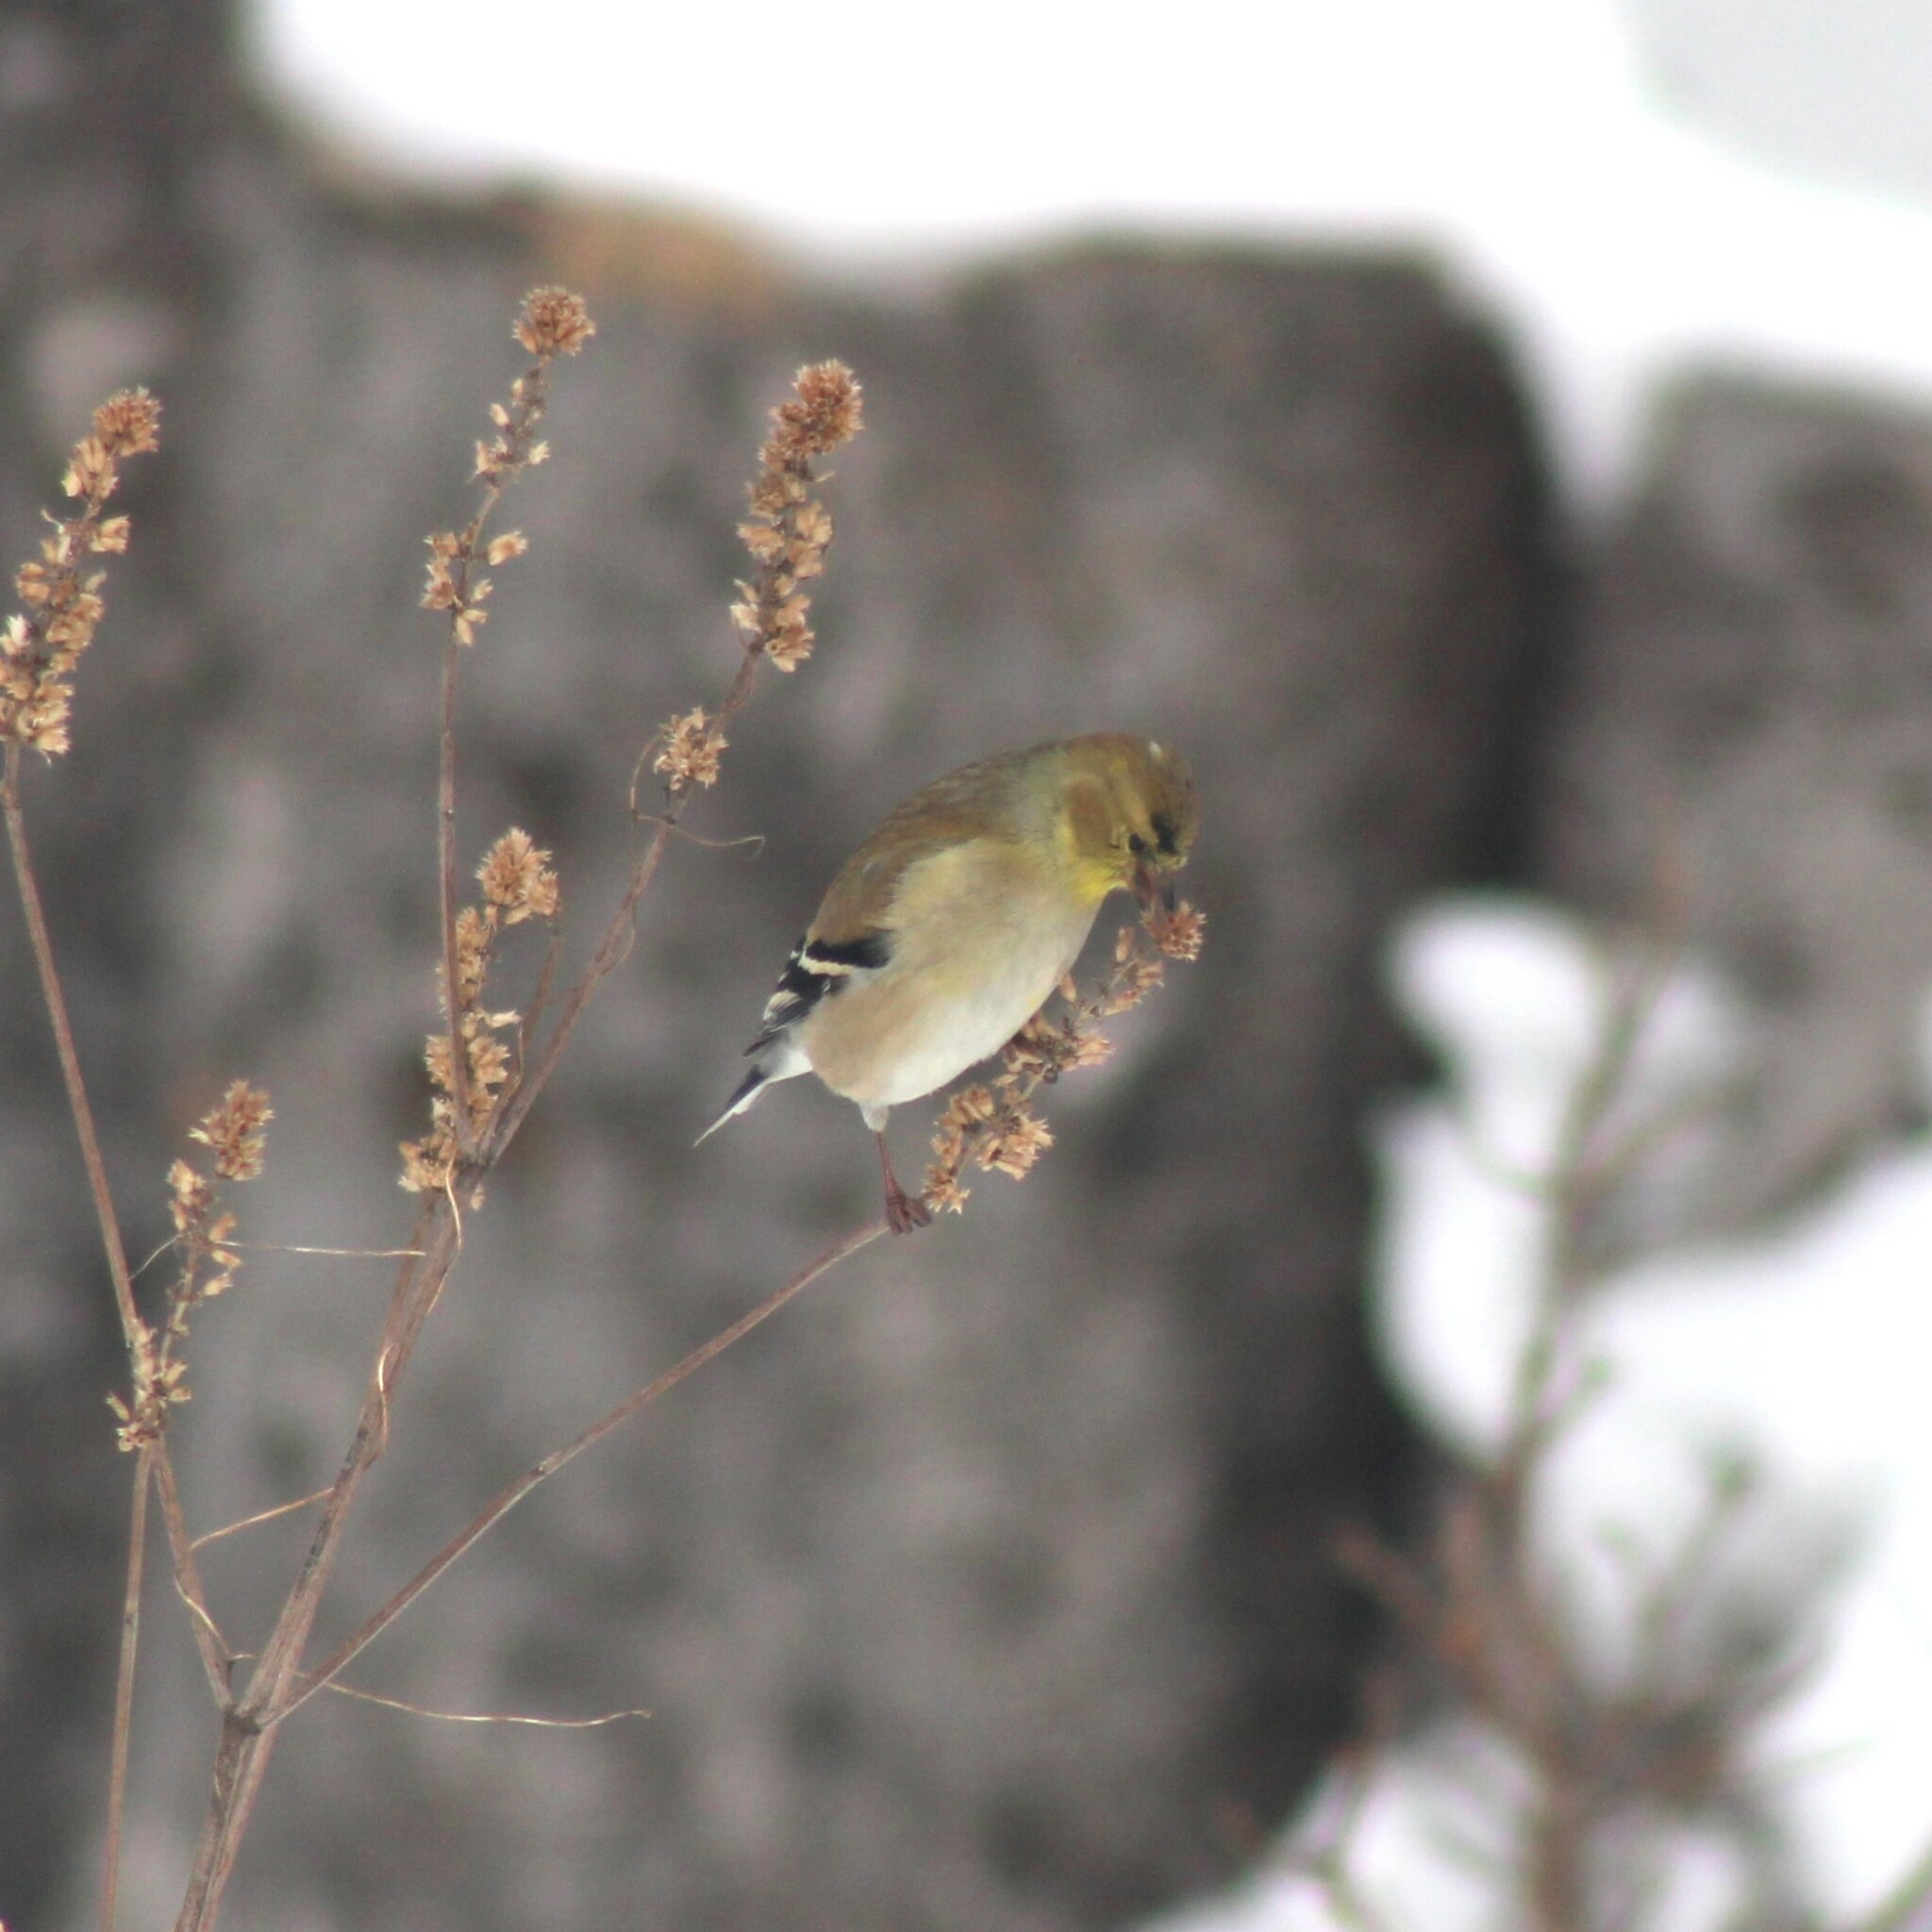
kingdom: Animalia
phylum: Chordata
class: Aves
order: Passeriformes
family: Fringillidae
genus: Spinus
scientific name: Spinus tristis
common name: American goldfinch
